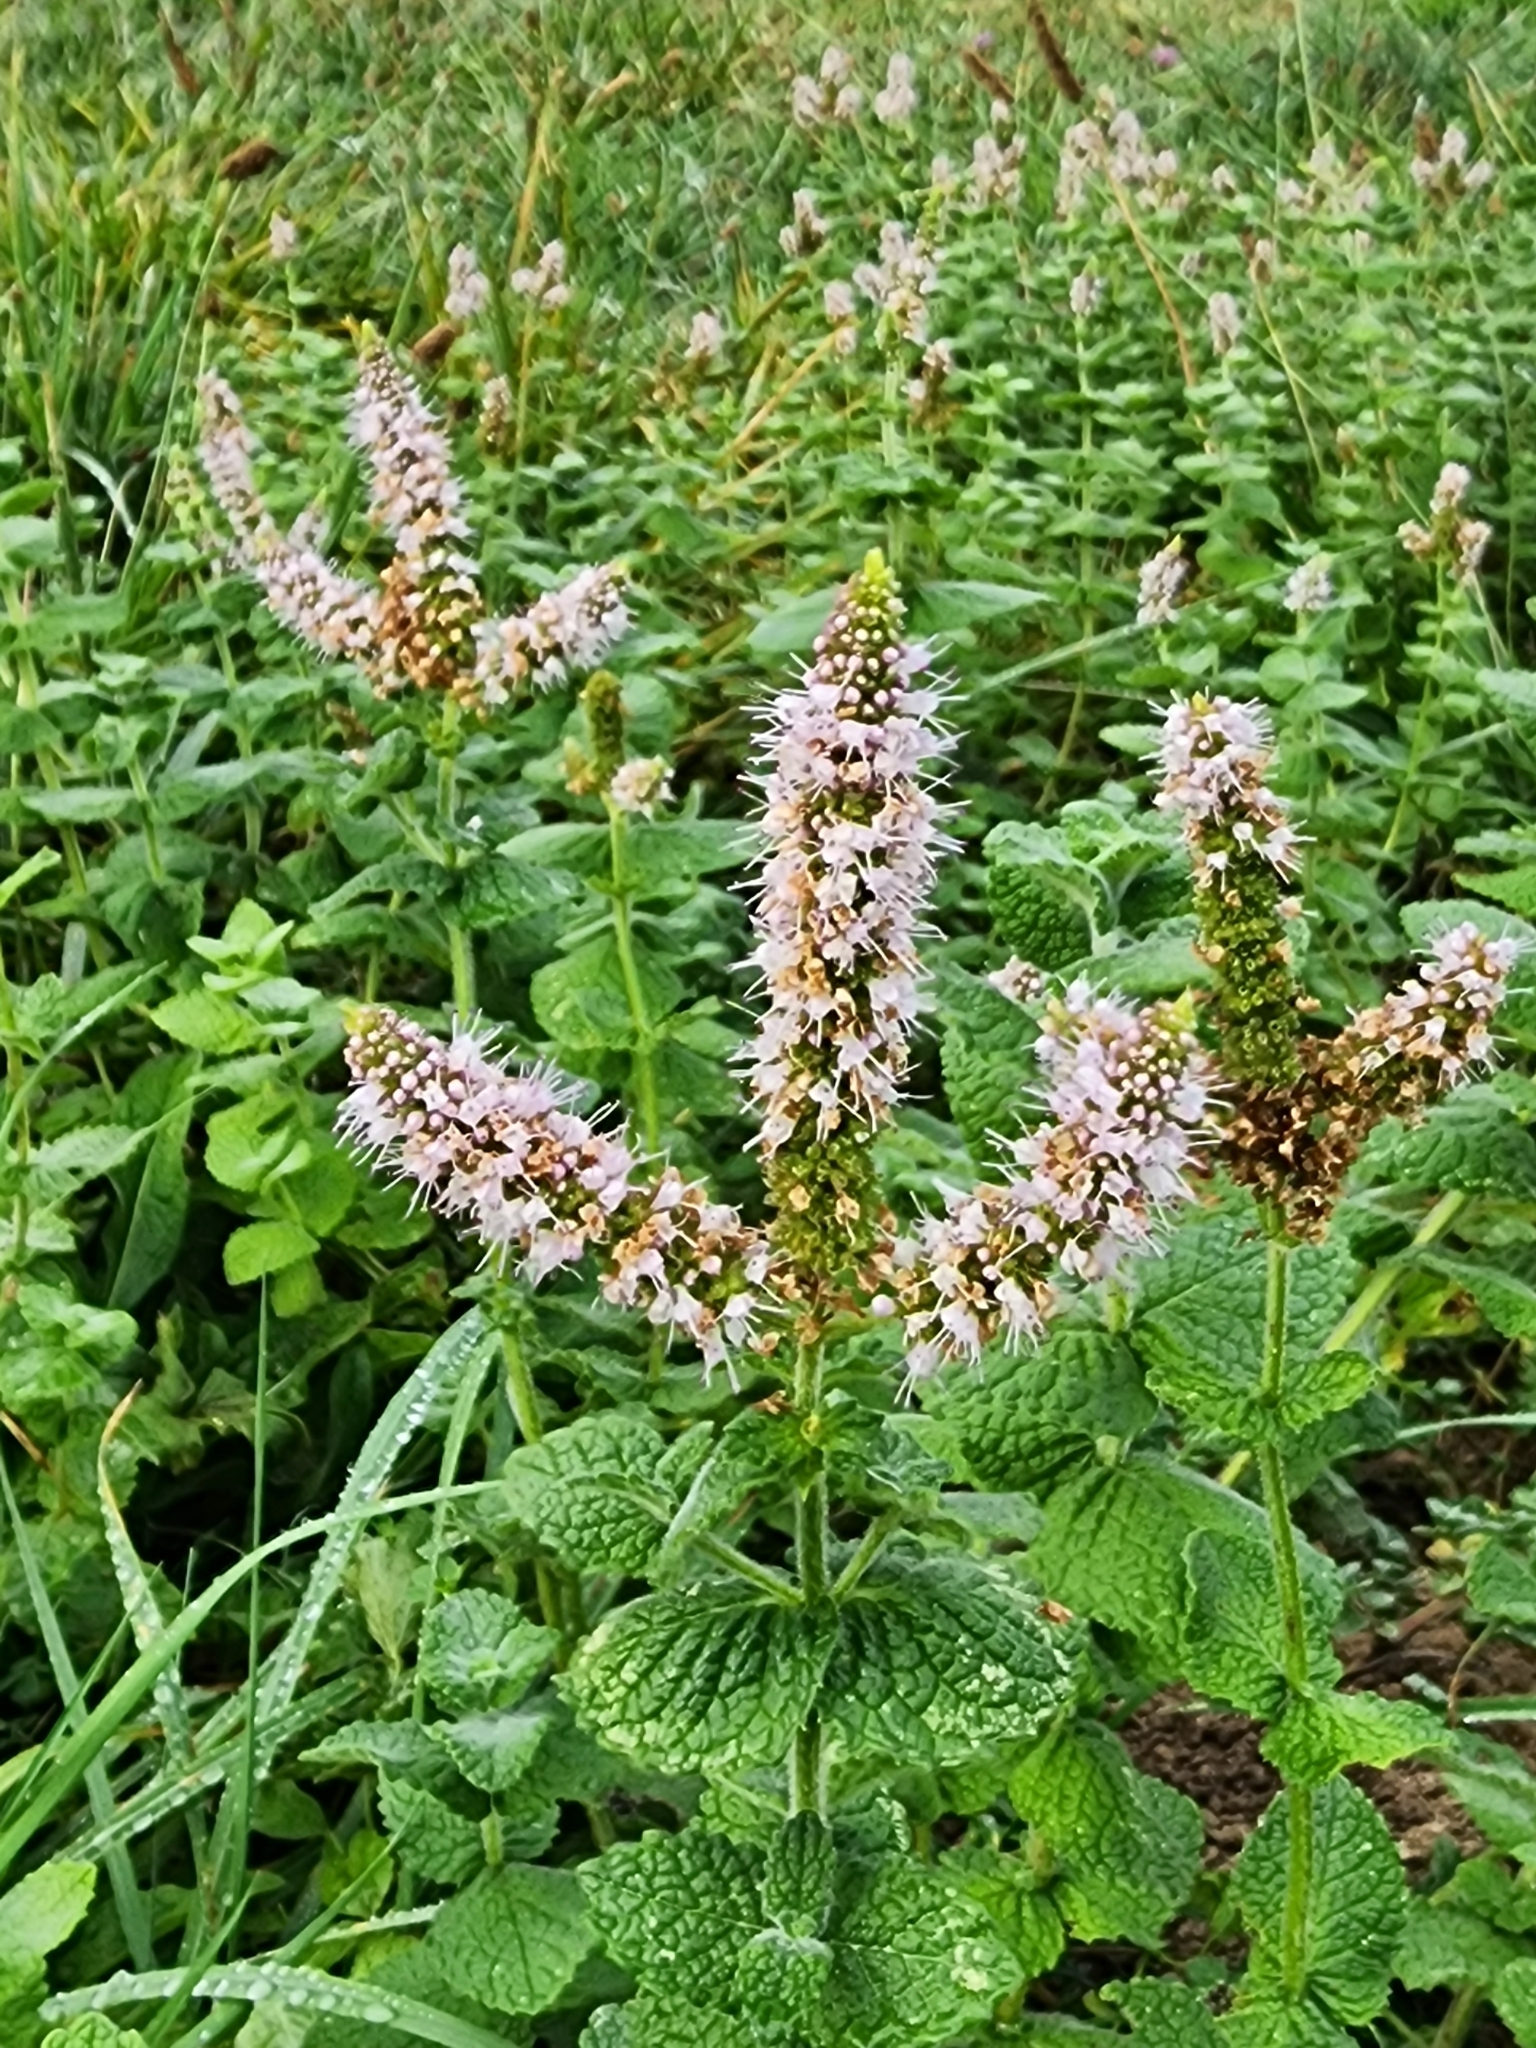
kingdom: Plantae
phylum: Tracheophyta
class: Magnoliopsida
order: Lamiales
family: Lamiaceae
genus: Mentha
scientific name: Mentha suaveolens
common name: Apple mint
